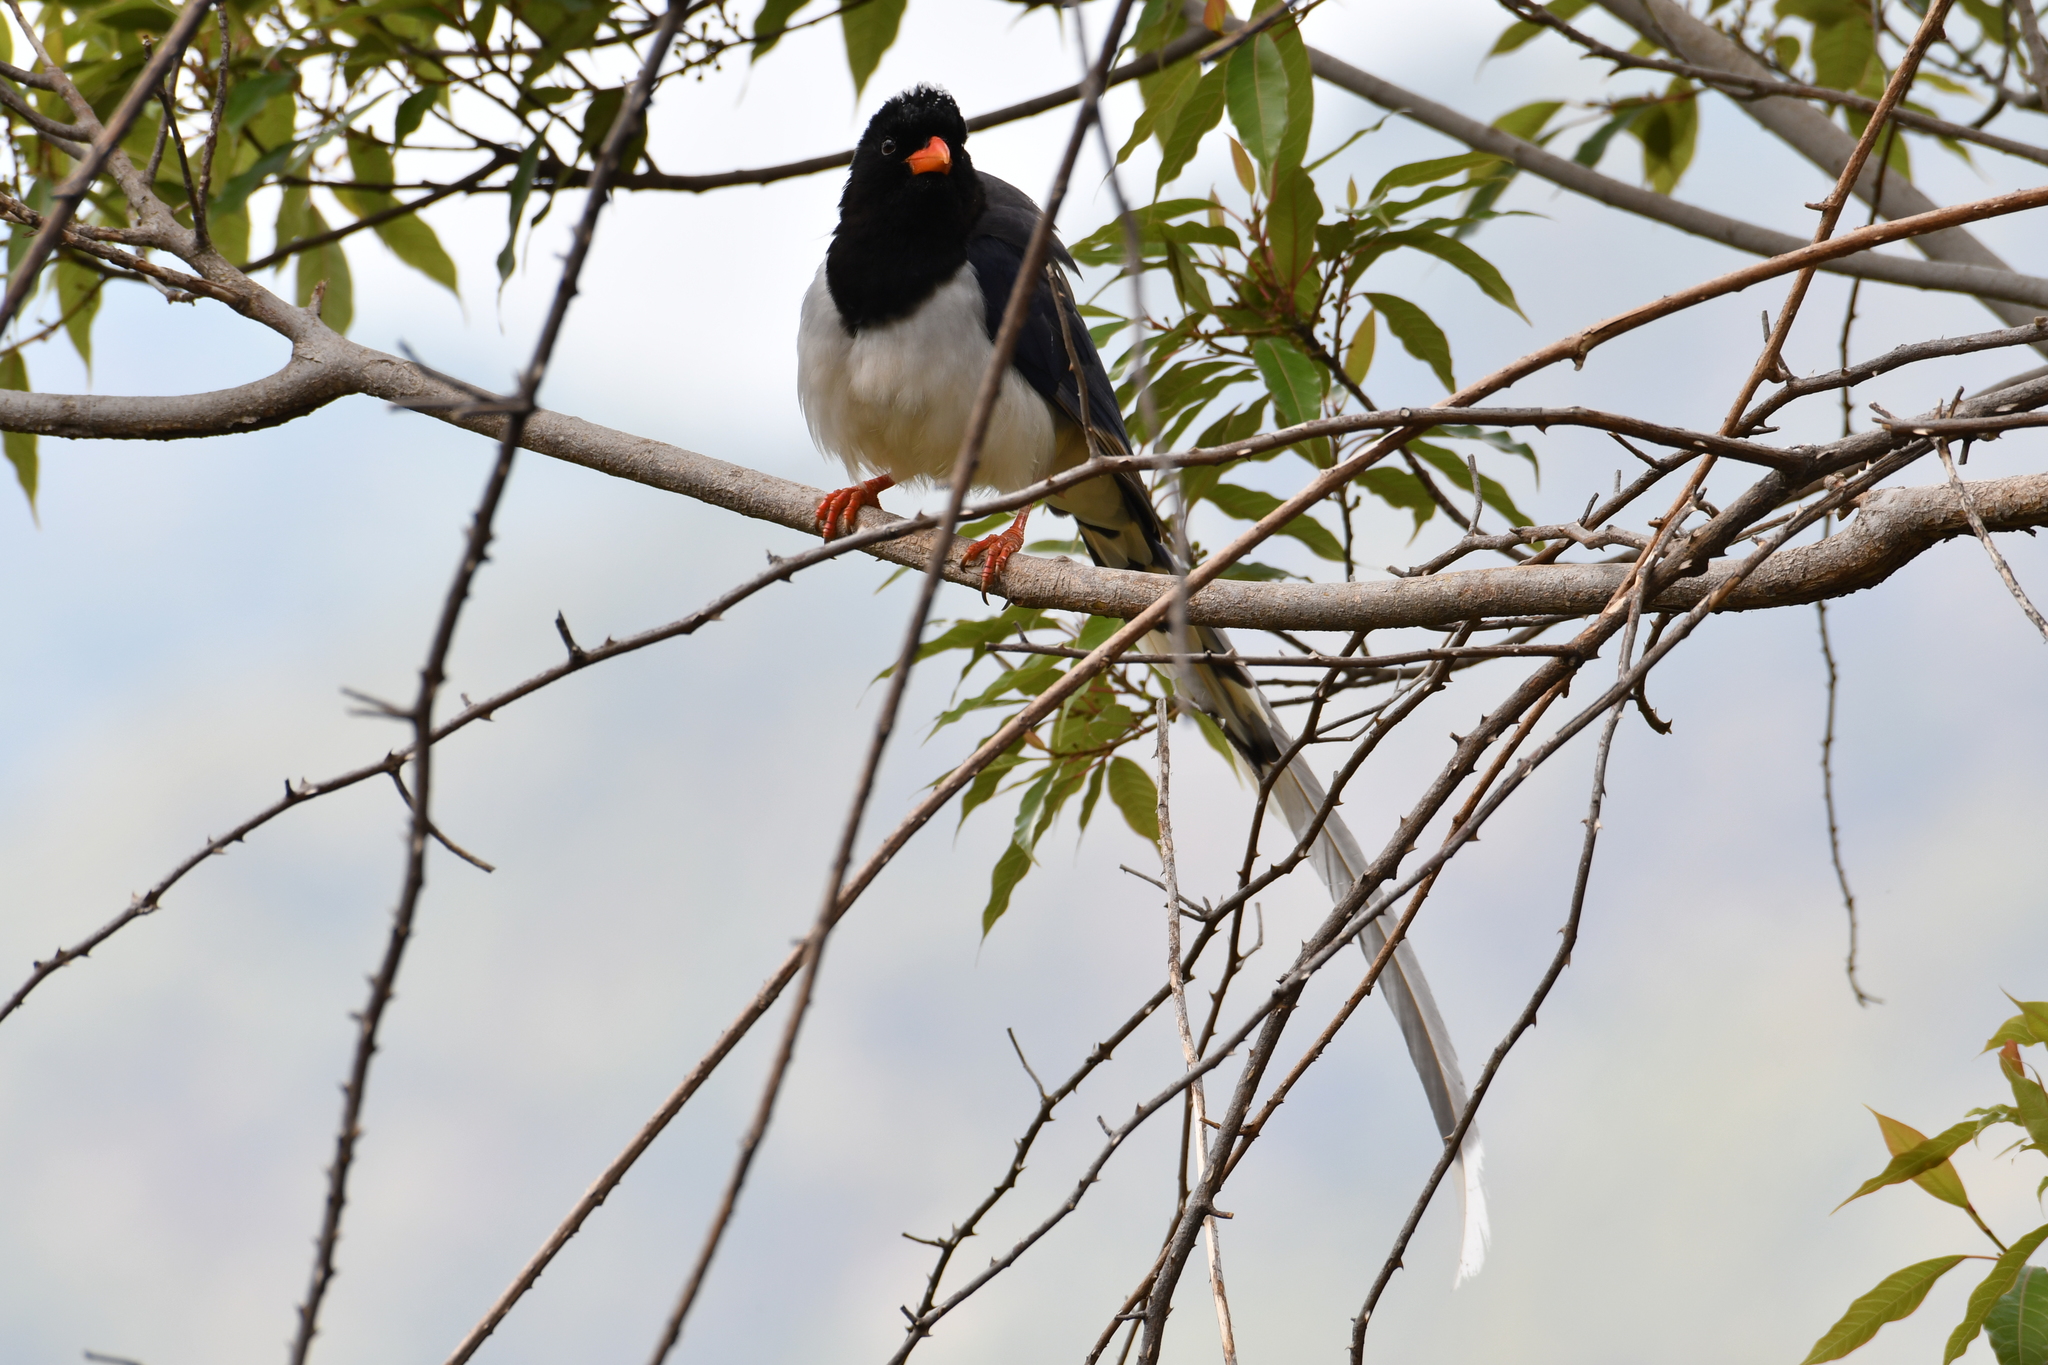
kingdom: Animalia
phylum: Chordata
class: Aves
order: Passeriformes
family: Corvidae
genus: Urocissa
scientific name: Urocissa erythroryncha
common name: Red-billed blue magpie
